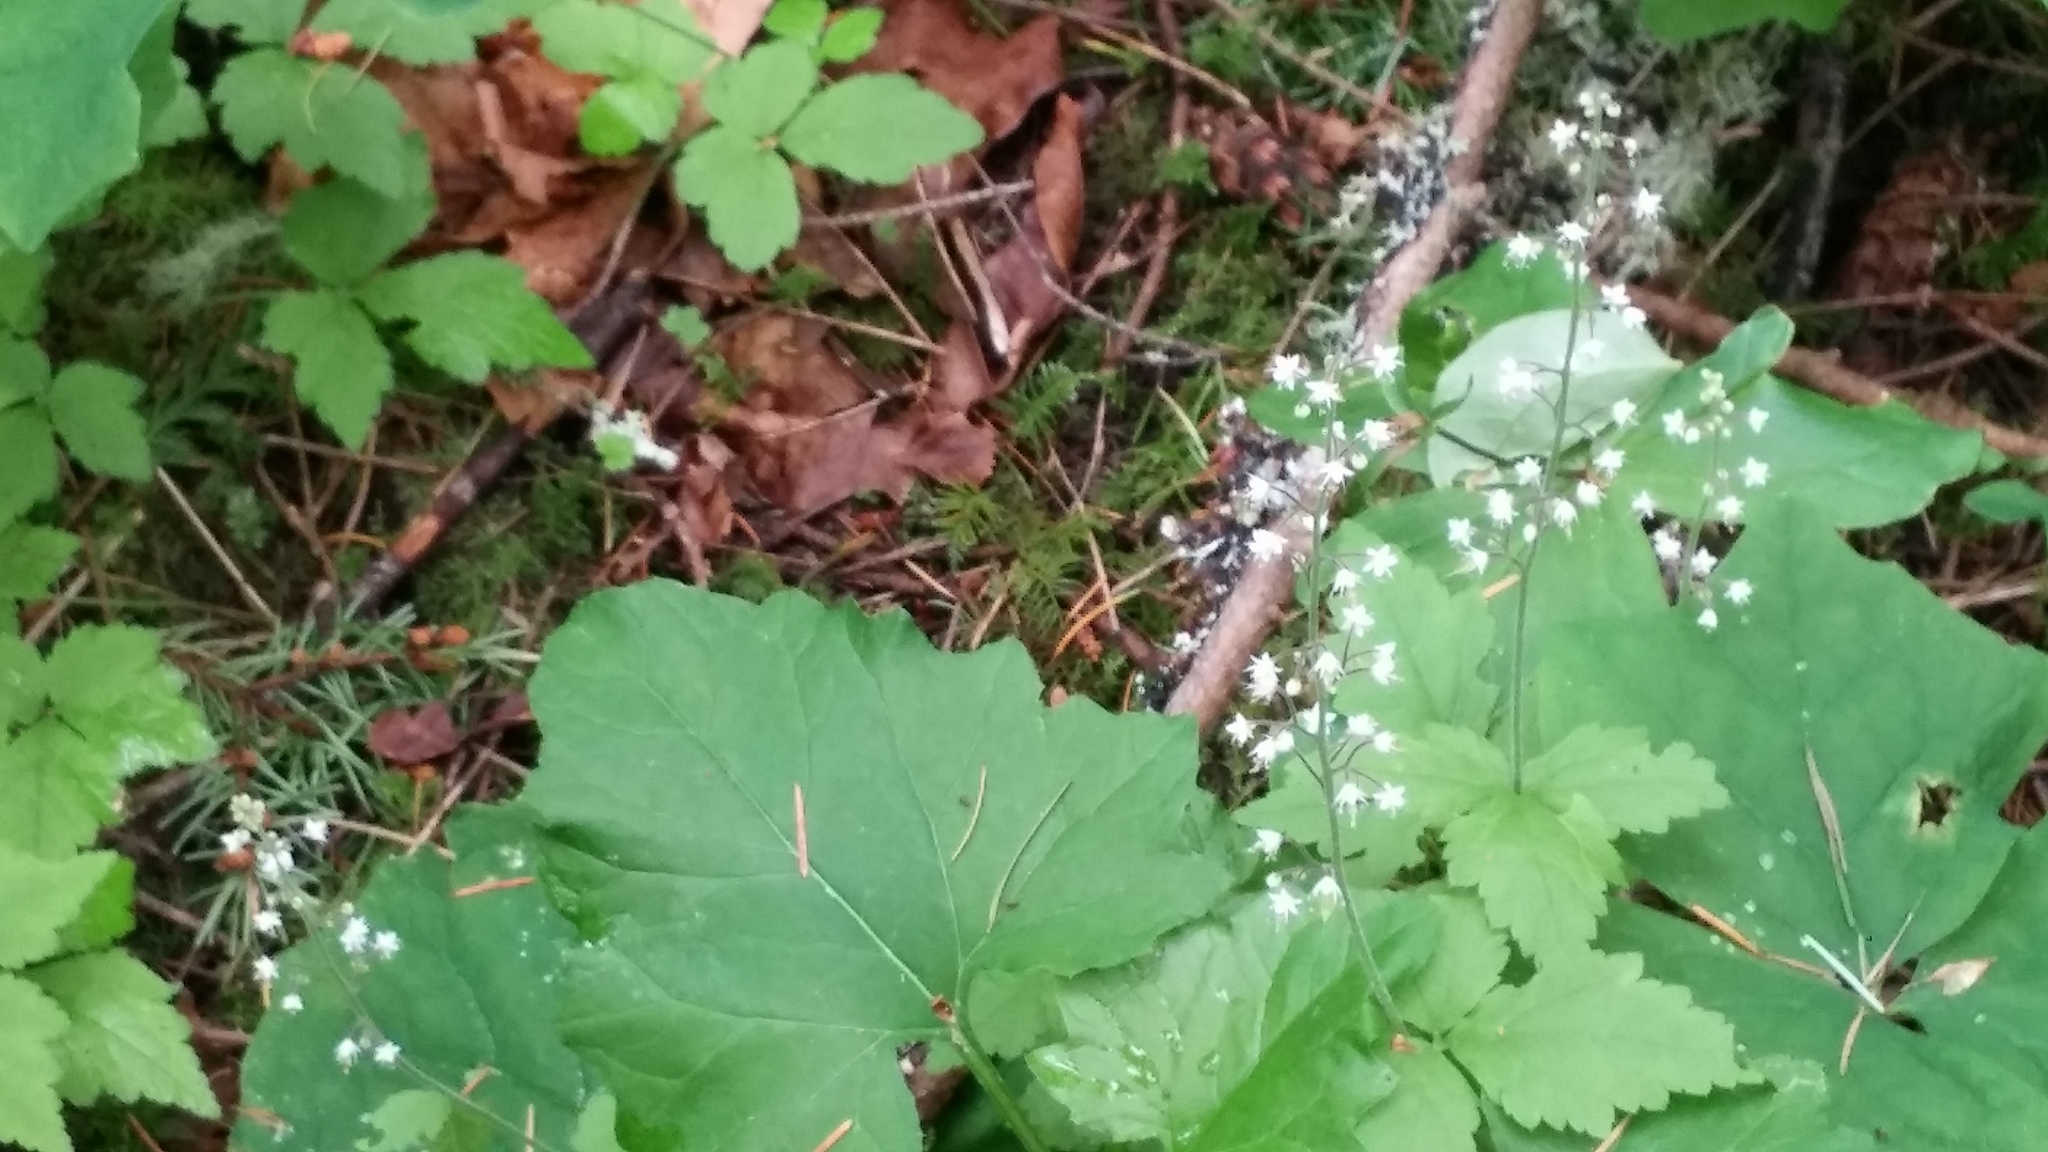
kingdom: Plantae
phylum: Tracheophyta
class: Magnoliopsida
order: Saxifragales
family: Saxifragaceae
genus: Tiarella
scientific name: Tiarella trifoliata
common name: Sugar-scoop
